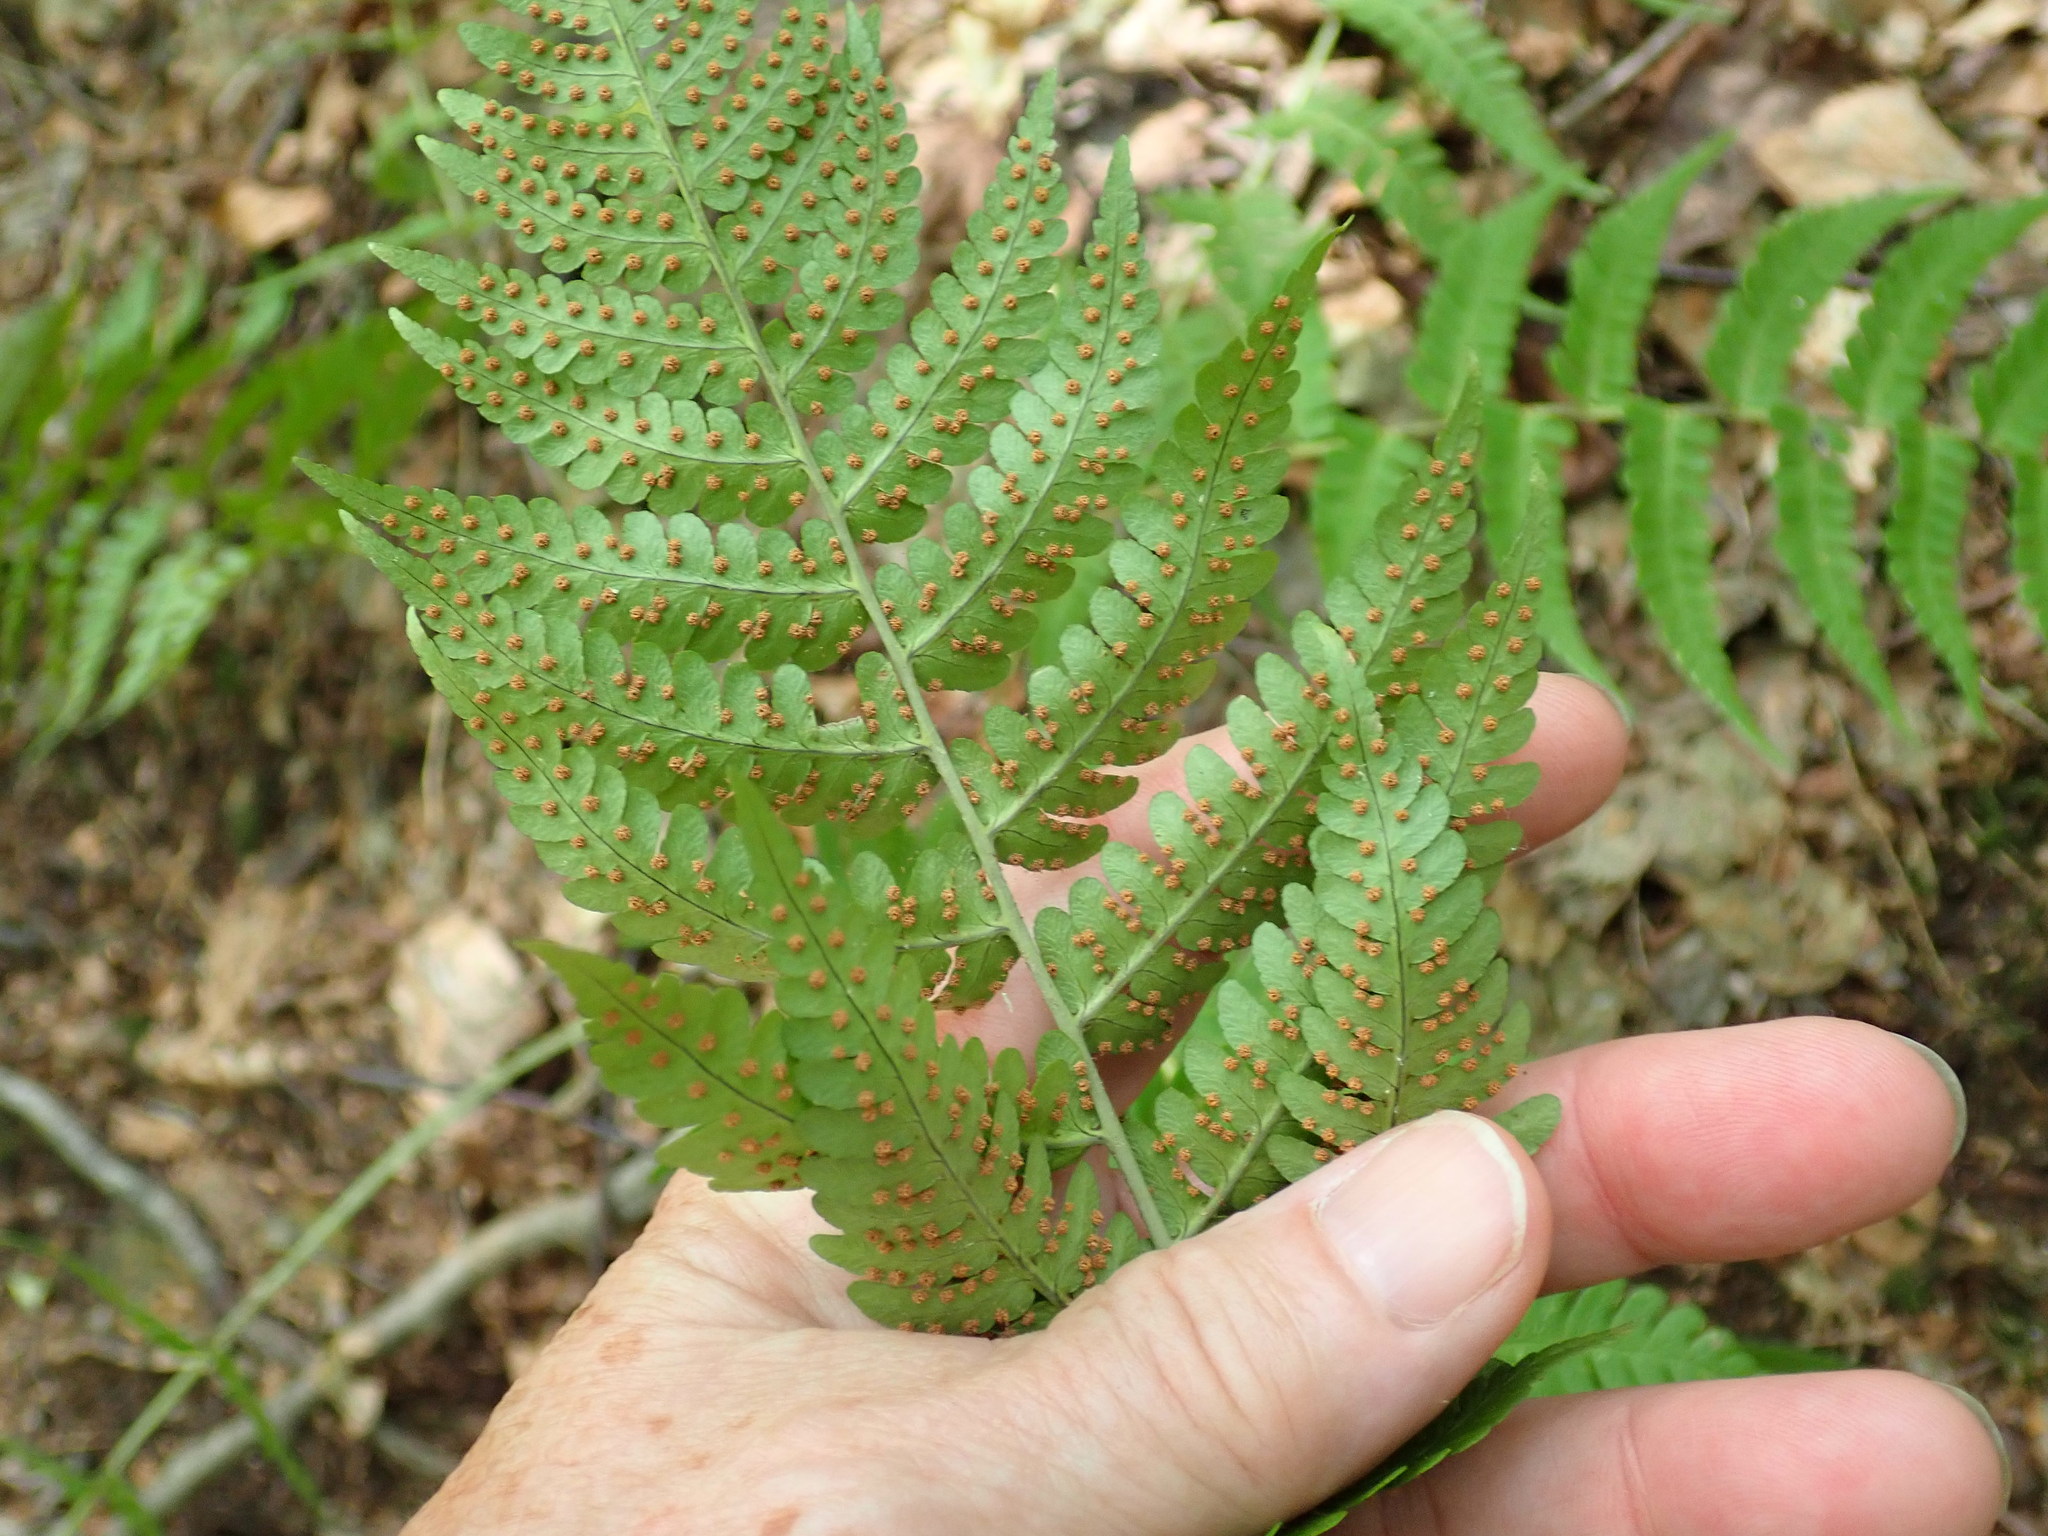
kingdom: Plantae
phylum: Tracheophyta
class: Polypodiopsida
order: Polypodiales
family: Dryopteridaceae
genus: Dryopteris
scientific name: Dryopteris marginalis
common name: Marginal wood fern
